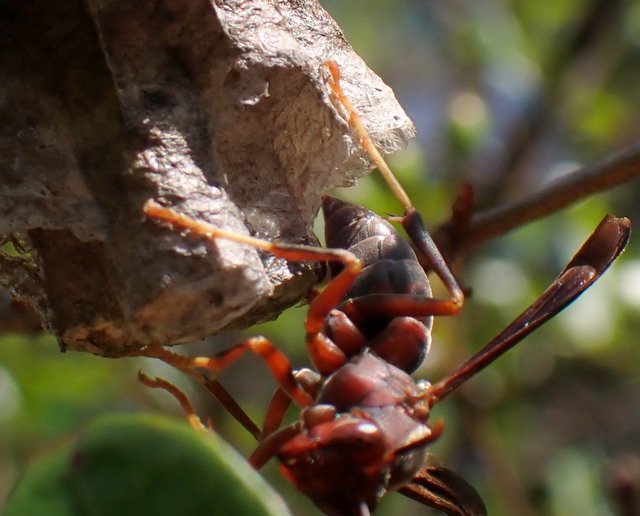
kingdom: Animalia
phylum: Arthropoda
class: Insecta
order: Hymenoptera
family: Eumenidae
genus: Polistes
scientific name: Polistes annularis
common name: Ringed paper wasp
